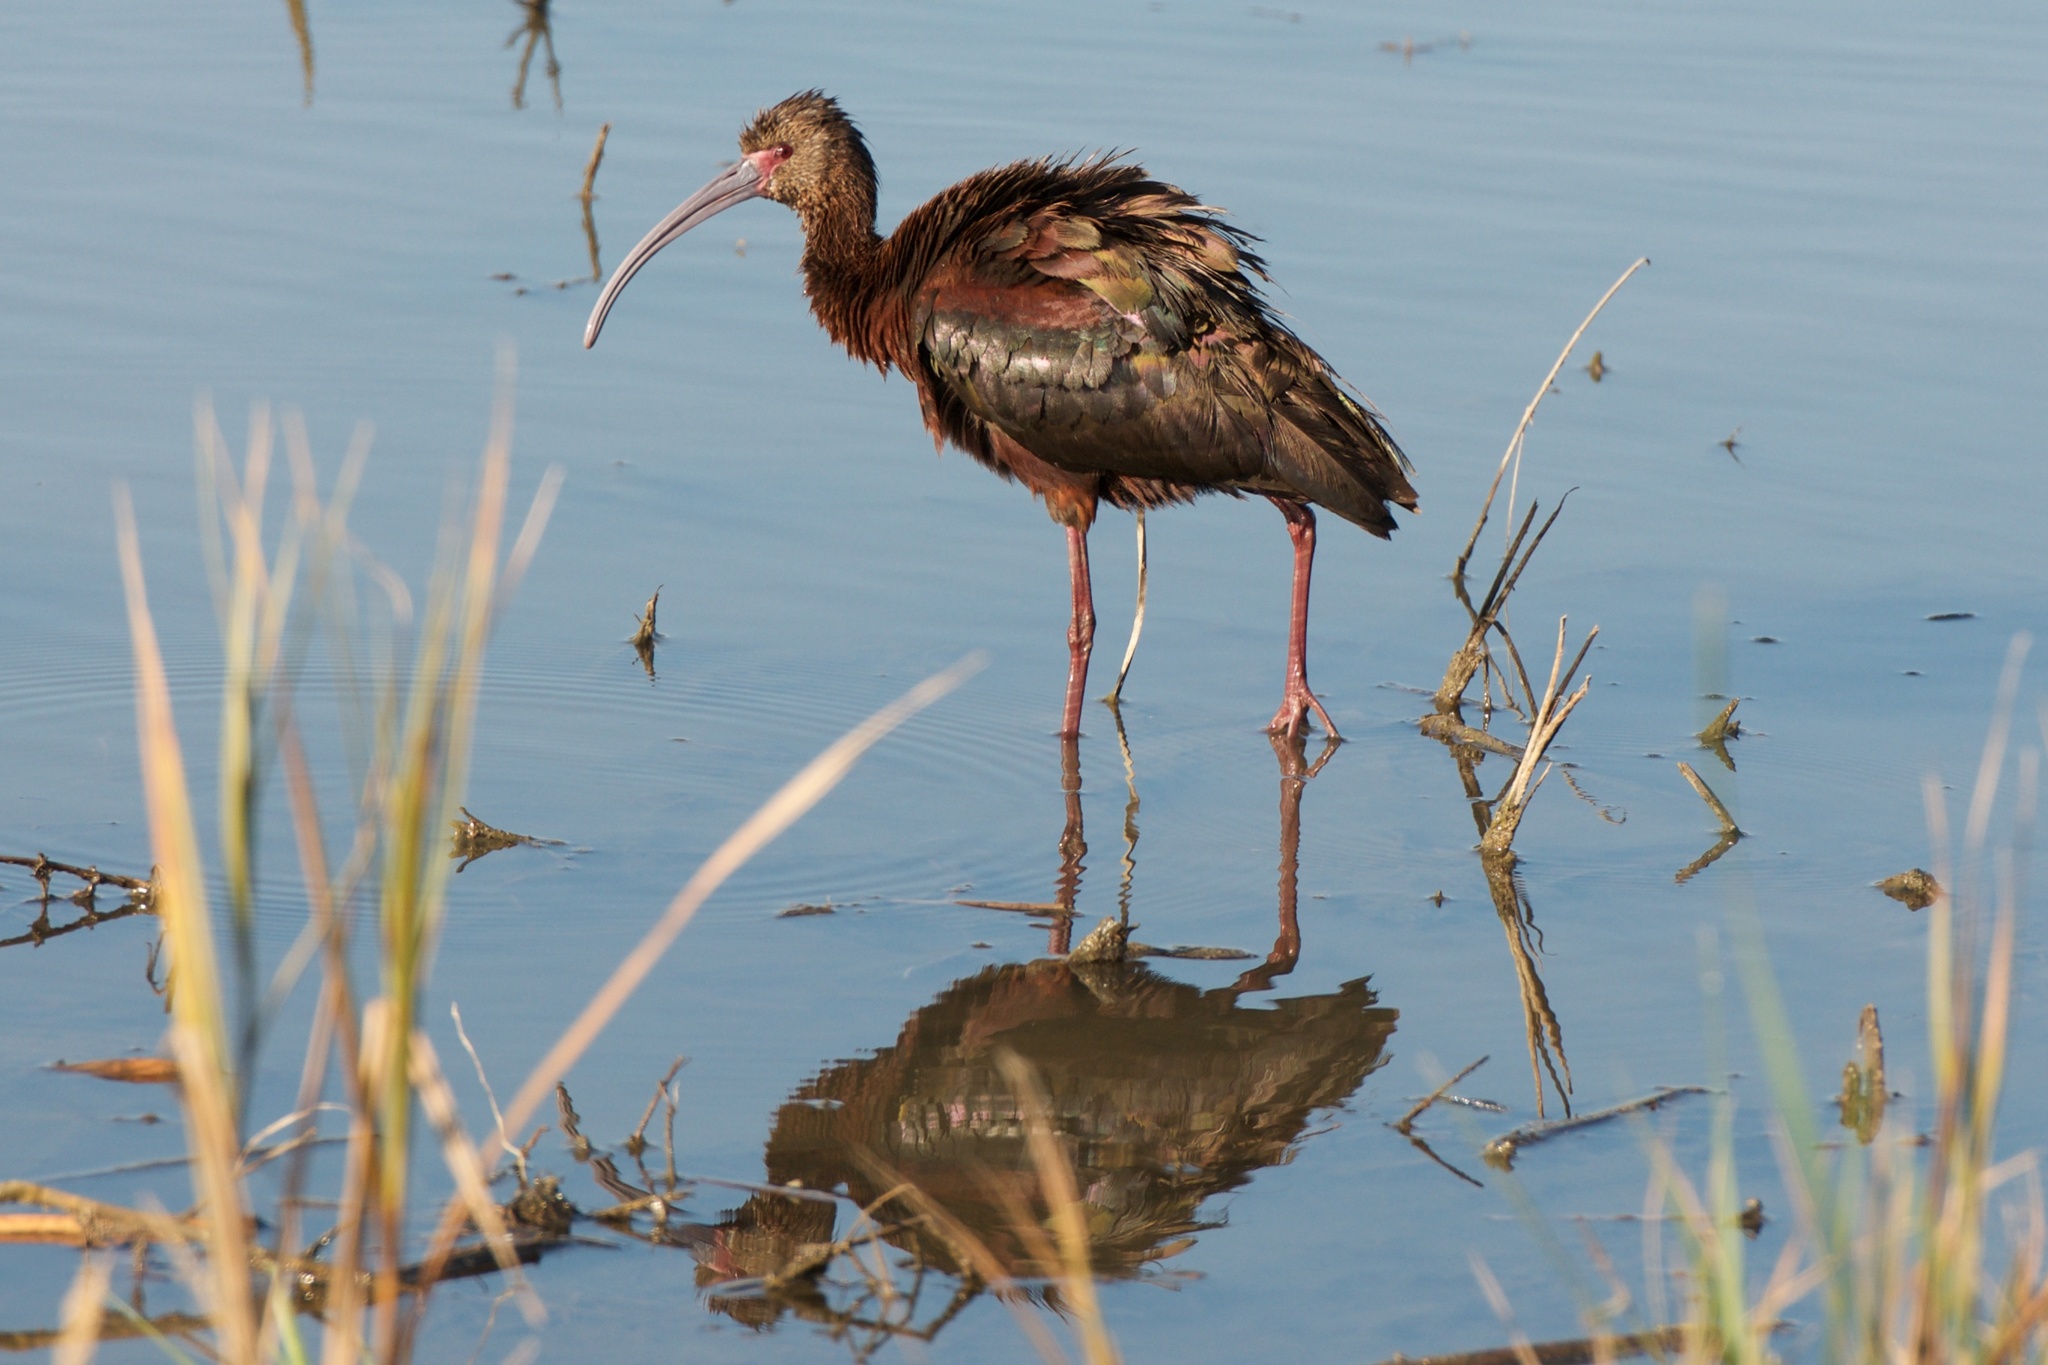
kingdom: Animalia
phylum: Chordata
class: Aves
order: Pelecaniformes
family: Threskiornithidae
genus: Plegadis
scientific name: Plegadis chihi
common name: White-faced ibis
